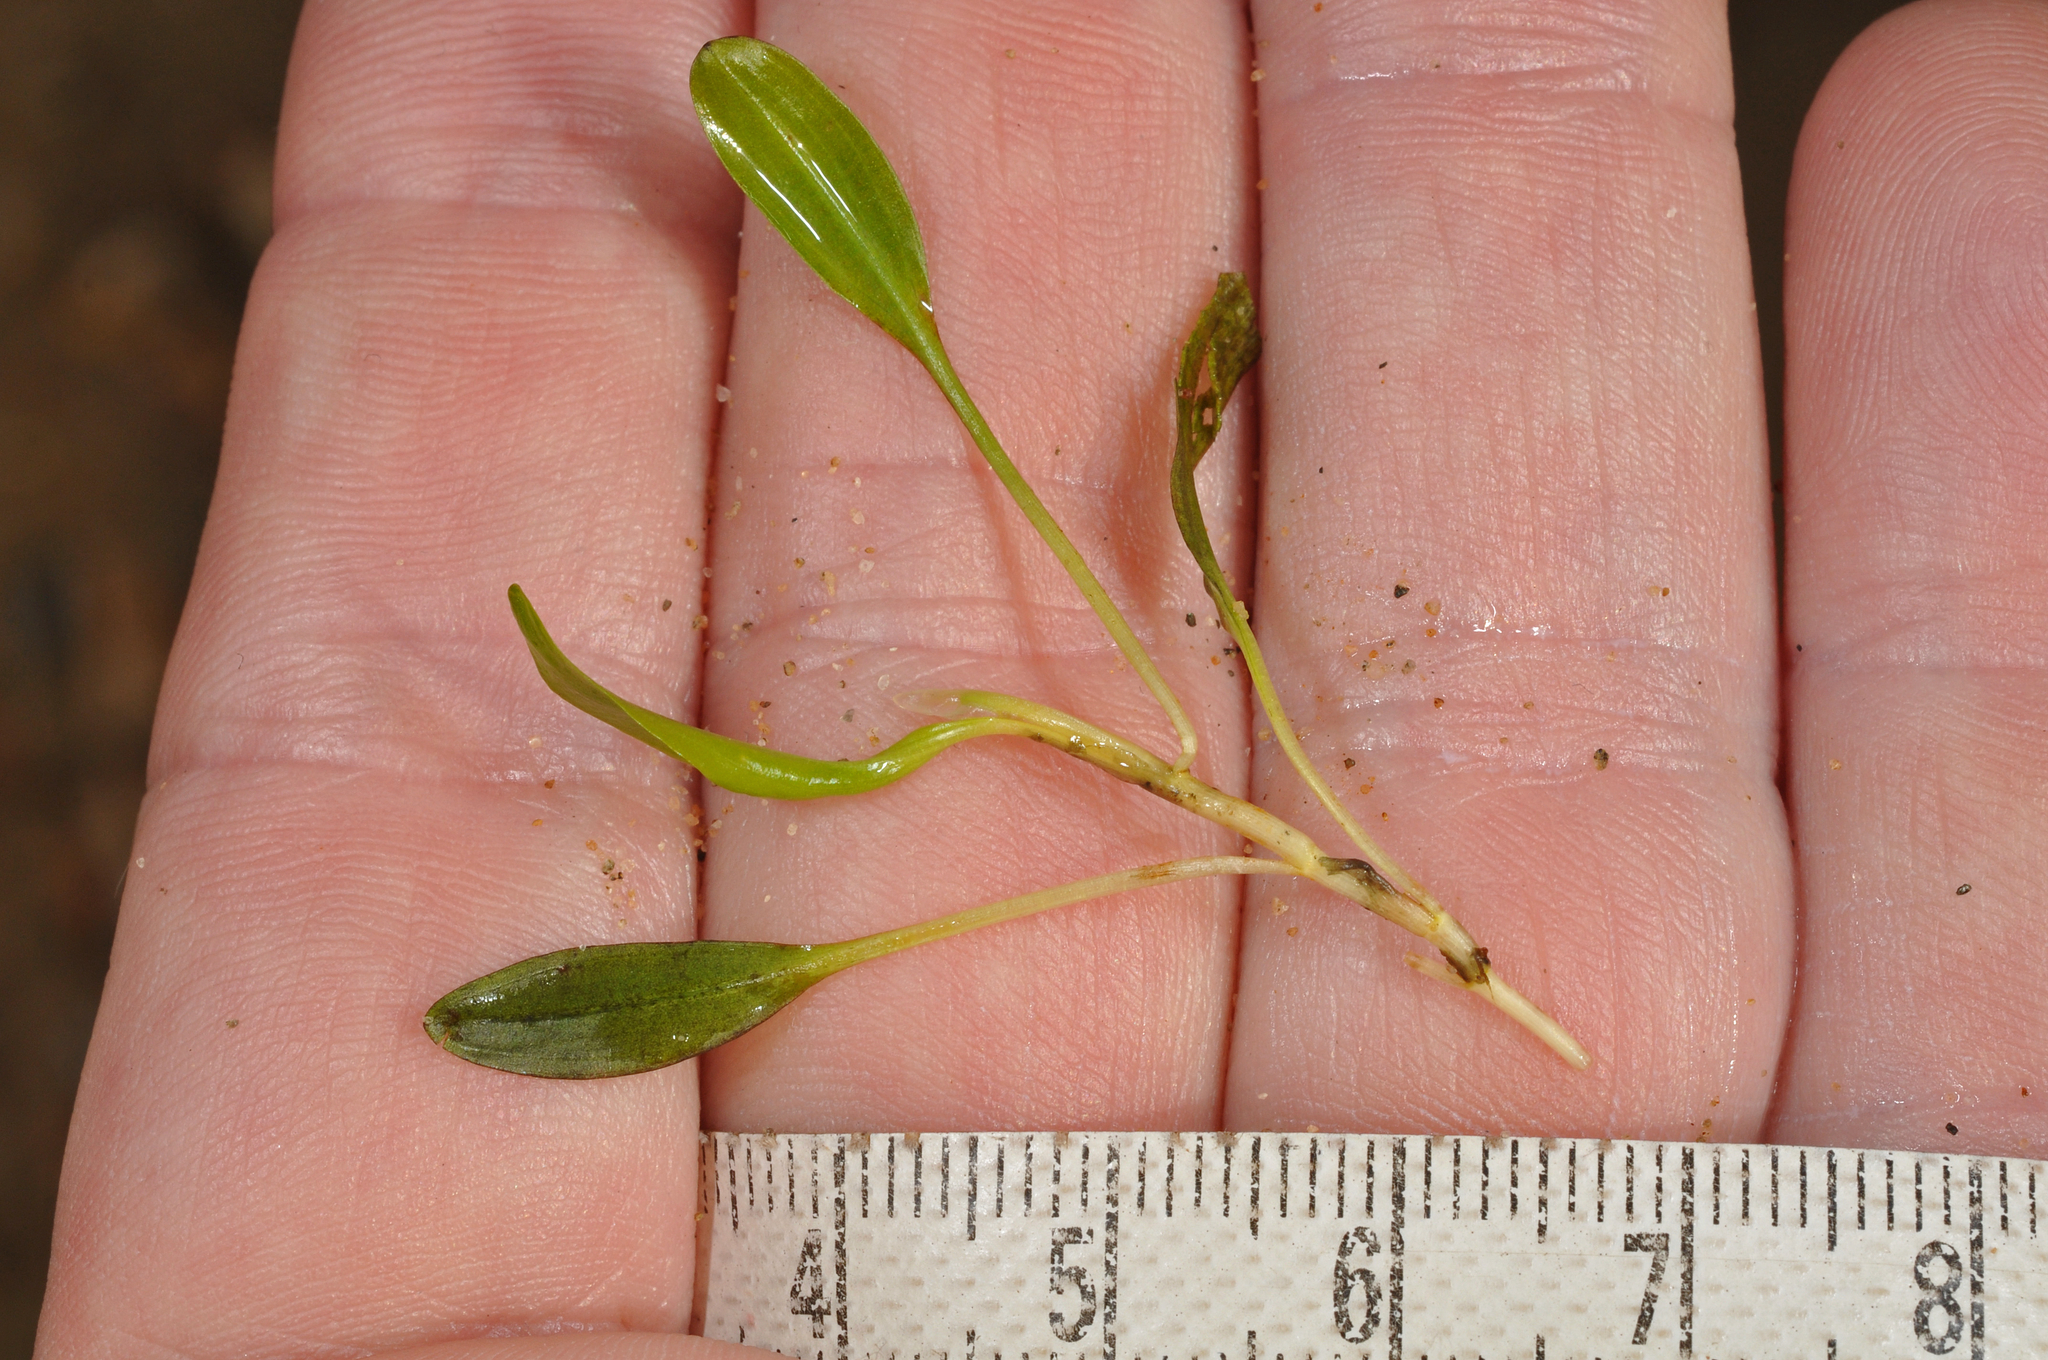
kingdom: Plantae
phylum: Tracheophyta
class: Liliopsida
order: Alismatales
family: Potamogetonaceae
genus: Potamogeton
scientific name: Potamogeton cheesemanii
